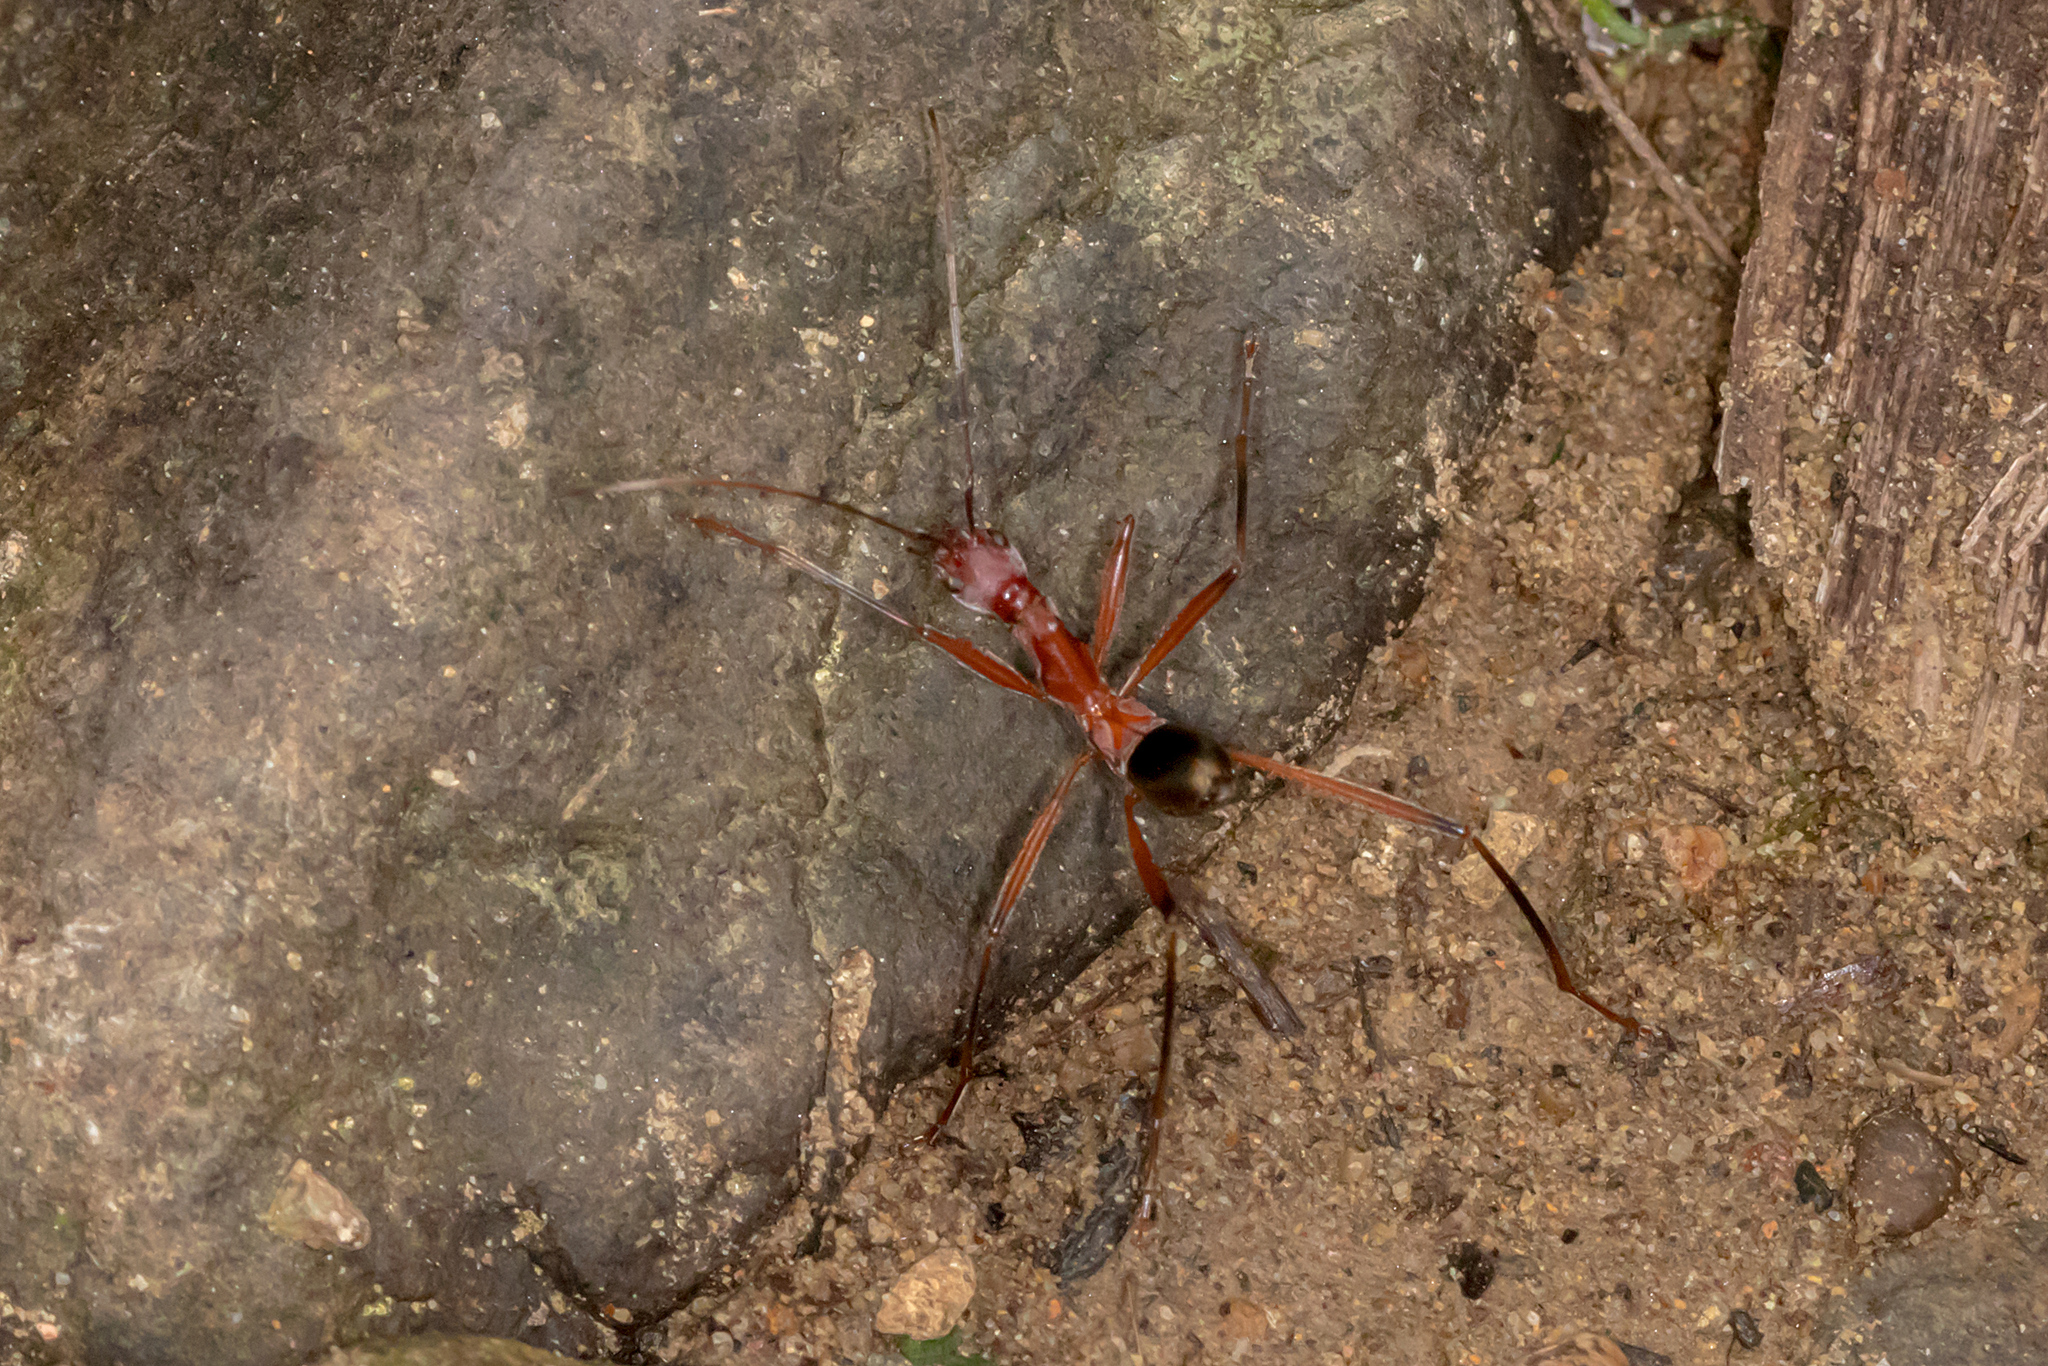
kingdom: Animalia
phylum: Arthropoda
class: Insecta
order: Coleoptera
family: Cerambycidae
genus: Formicomimus
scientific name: Formicomimus mirabilis
